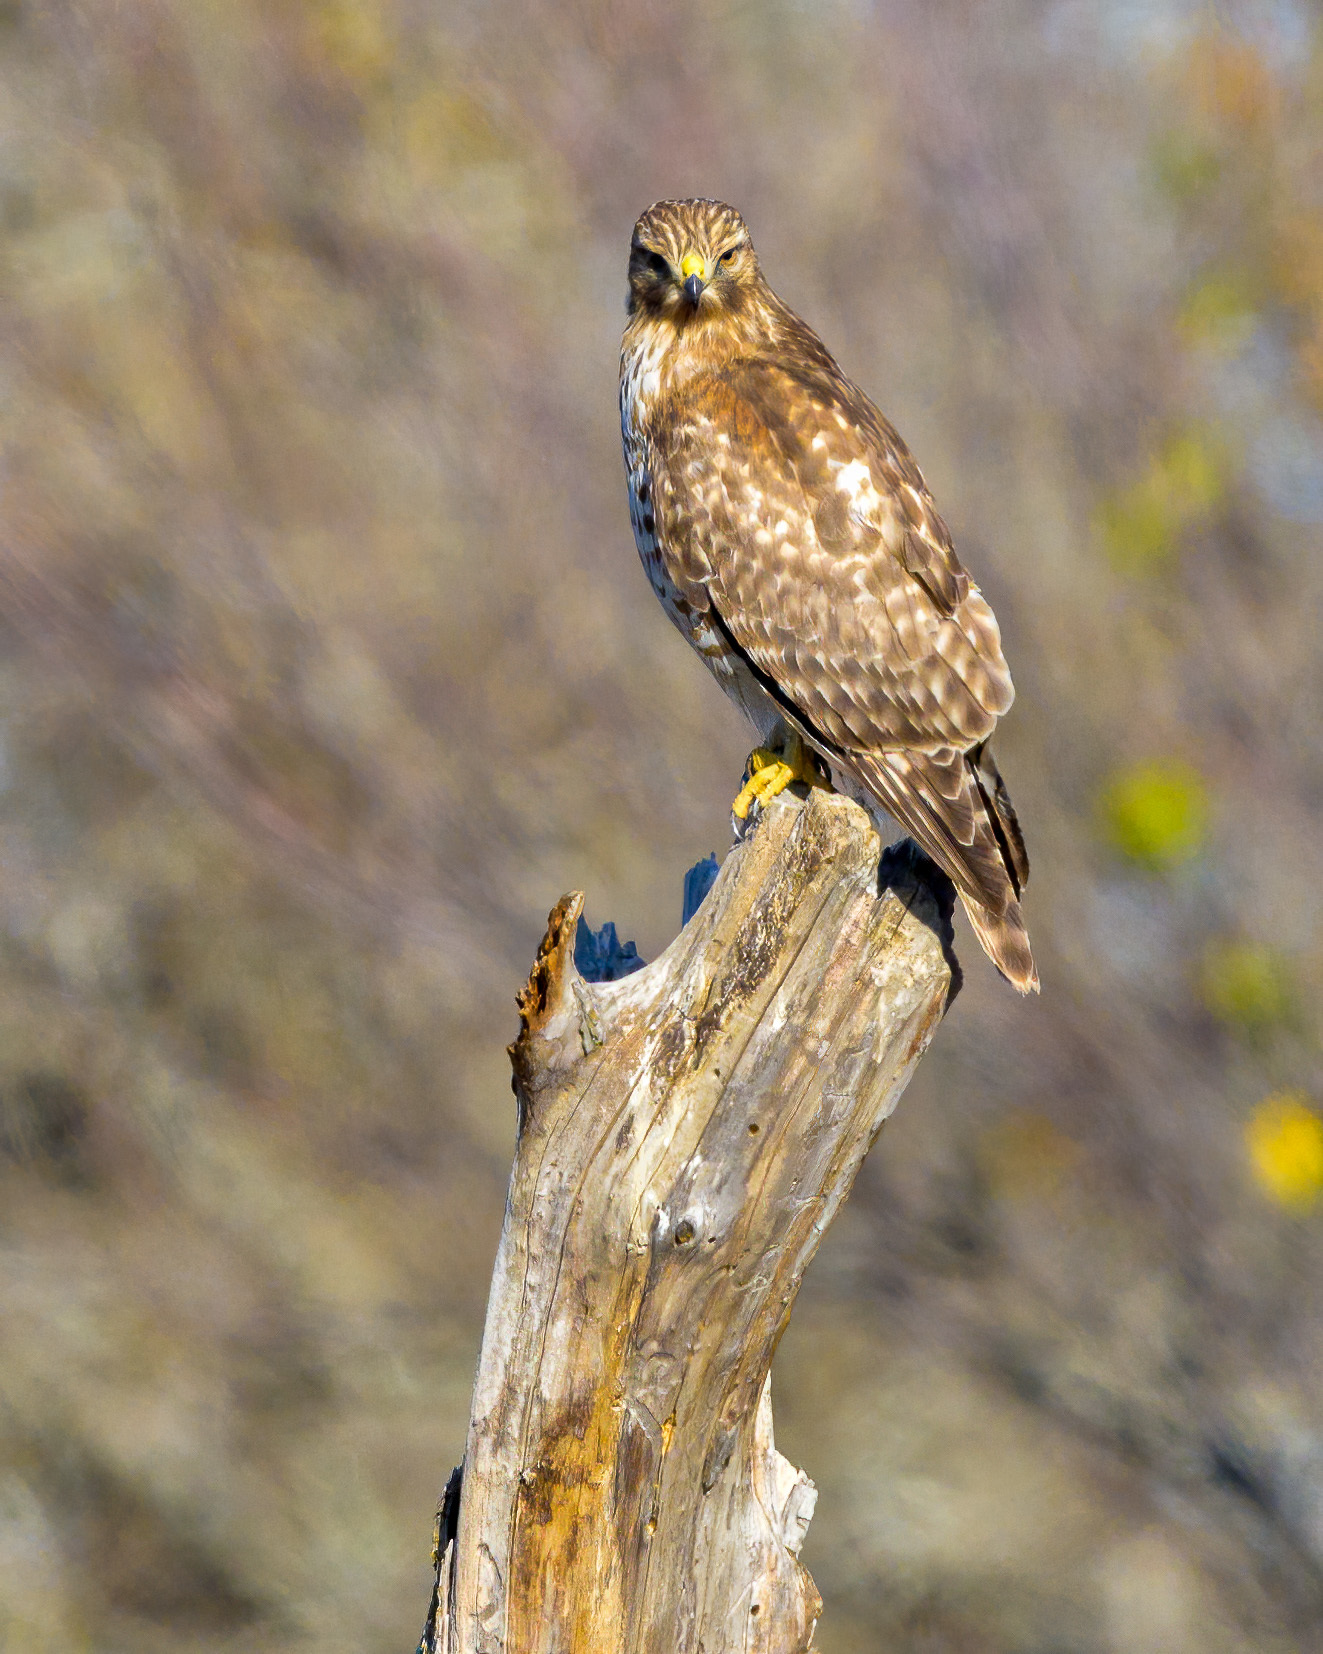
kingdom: Animalia
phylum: Chordata
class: Aves
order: Accipitriformes
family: Accipitridae
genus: Buteo
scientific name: Buteo lineatus
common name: Red-shouldered hawk
